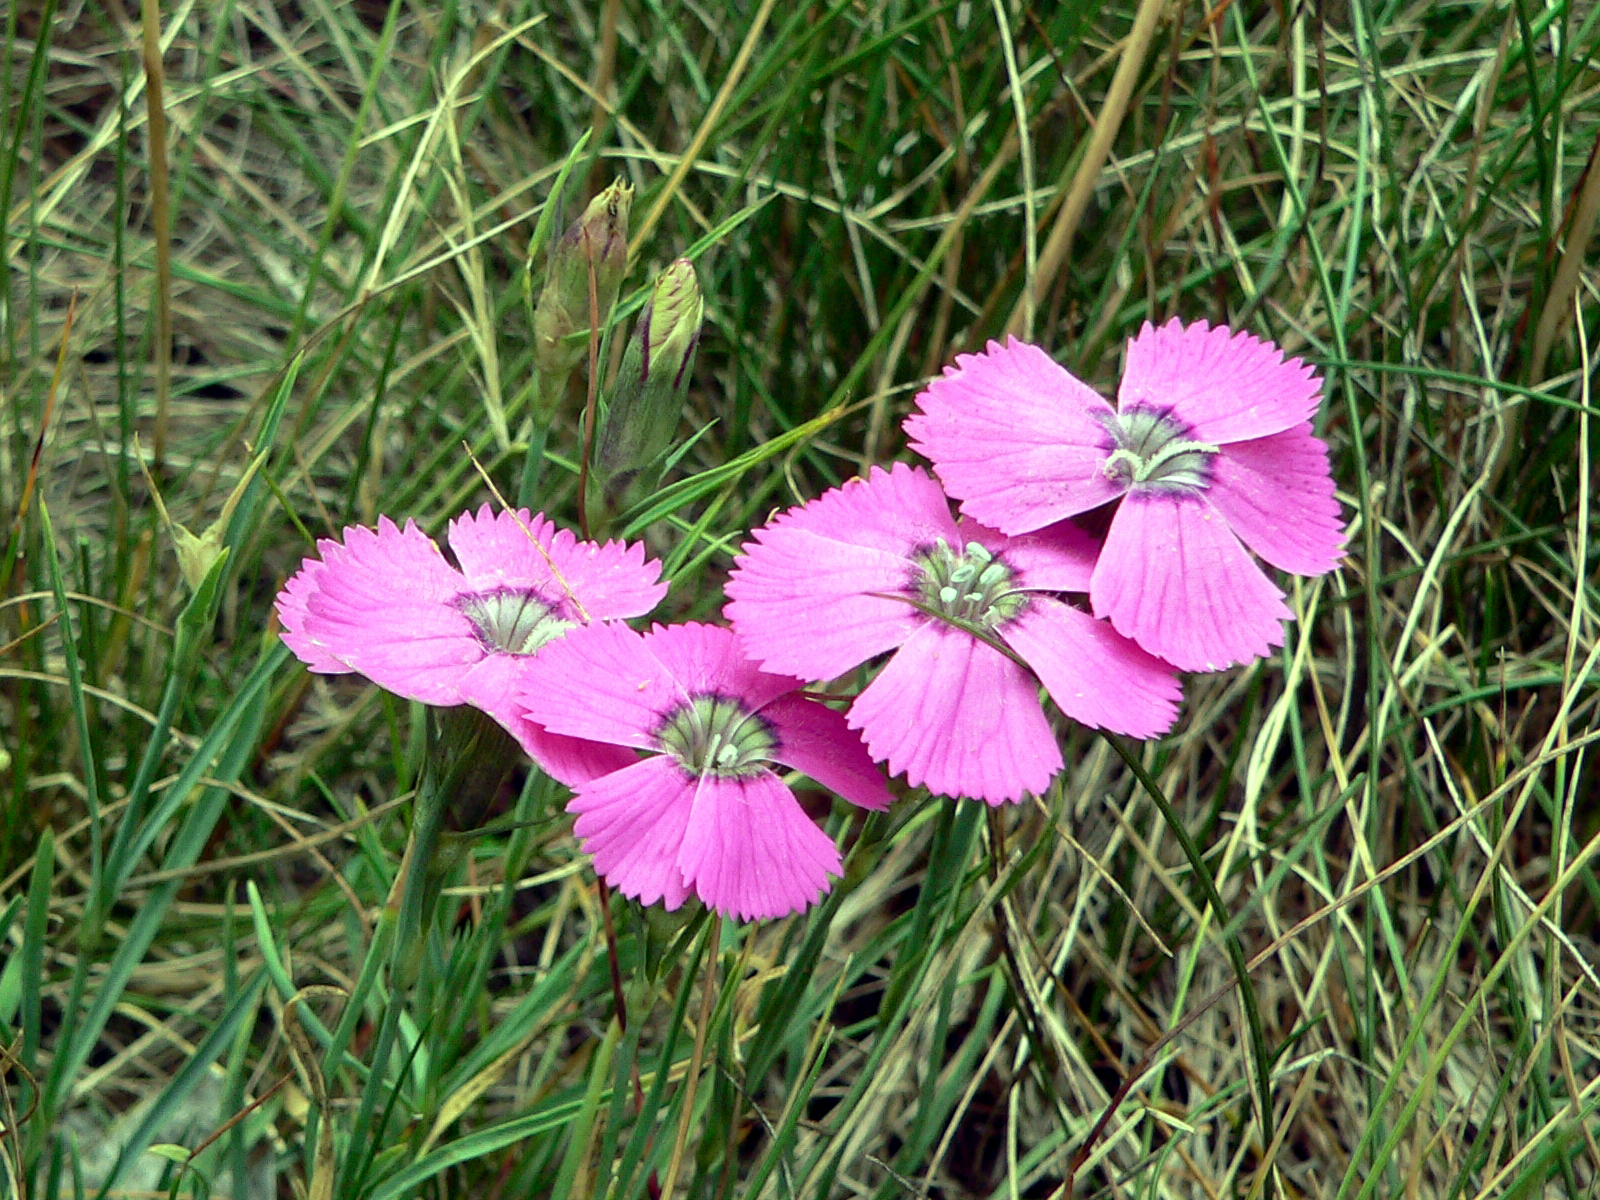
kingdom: Plantae
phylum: Tracheophyta
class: Magnoliopsida
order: Caryophyllales
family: Caryophyllaceae
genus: Dianthus
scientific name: Dianthus pavonius
